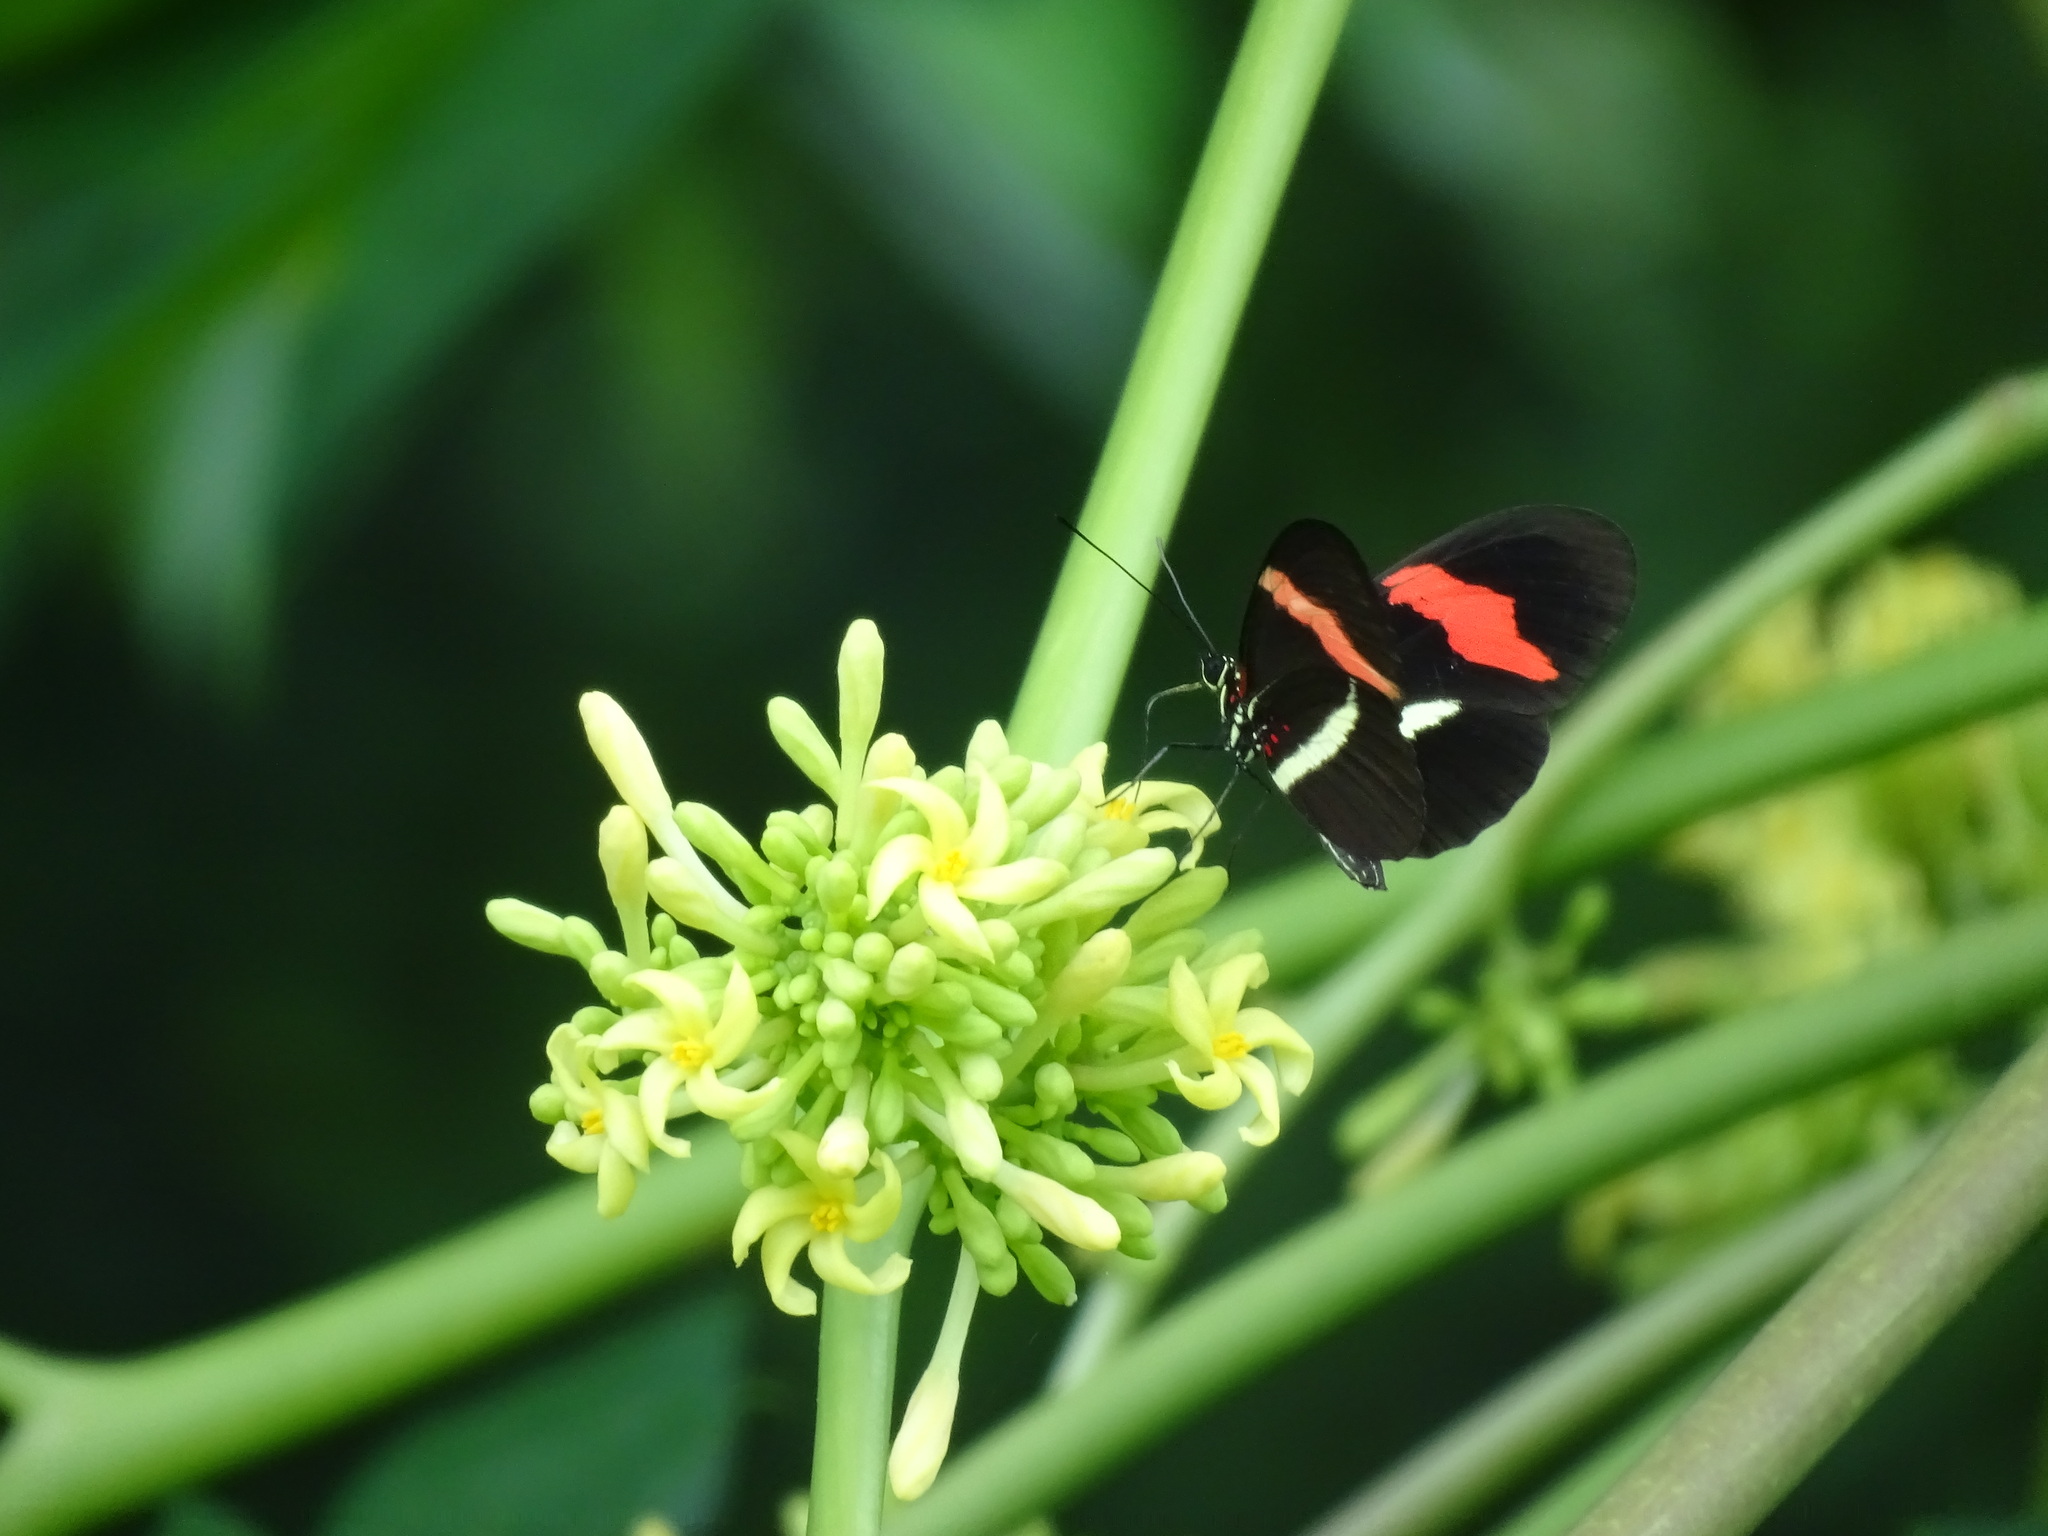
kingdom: Animalia
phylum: Arthropoda
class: Insecta
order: Lepidoptera
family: Nymphalidae
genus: Heliconius
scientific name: Heliconius erato
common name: Common patch longwing
